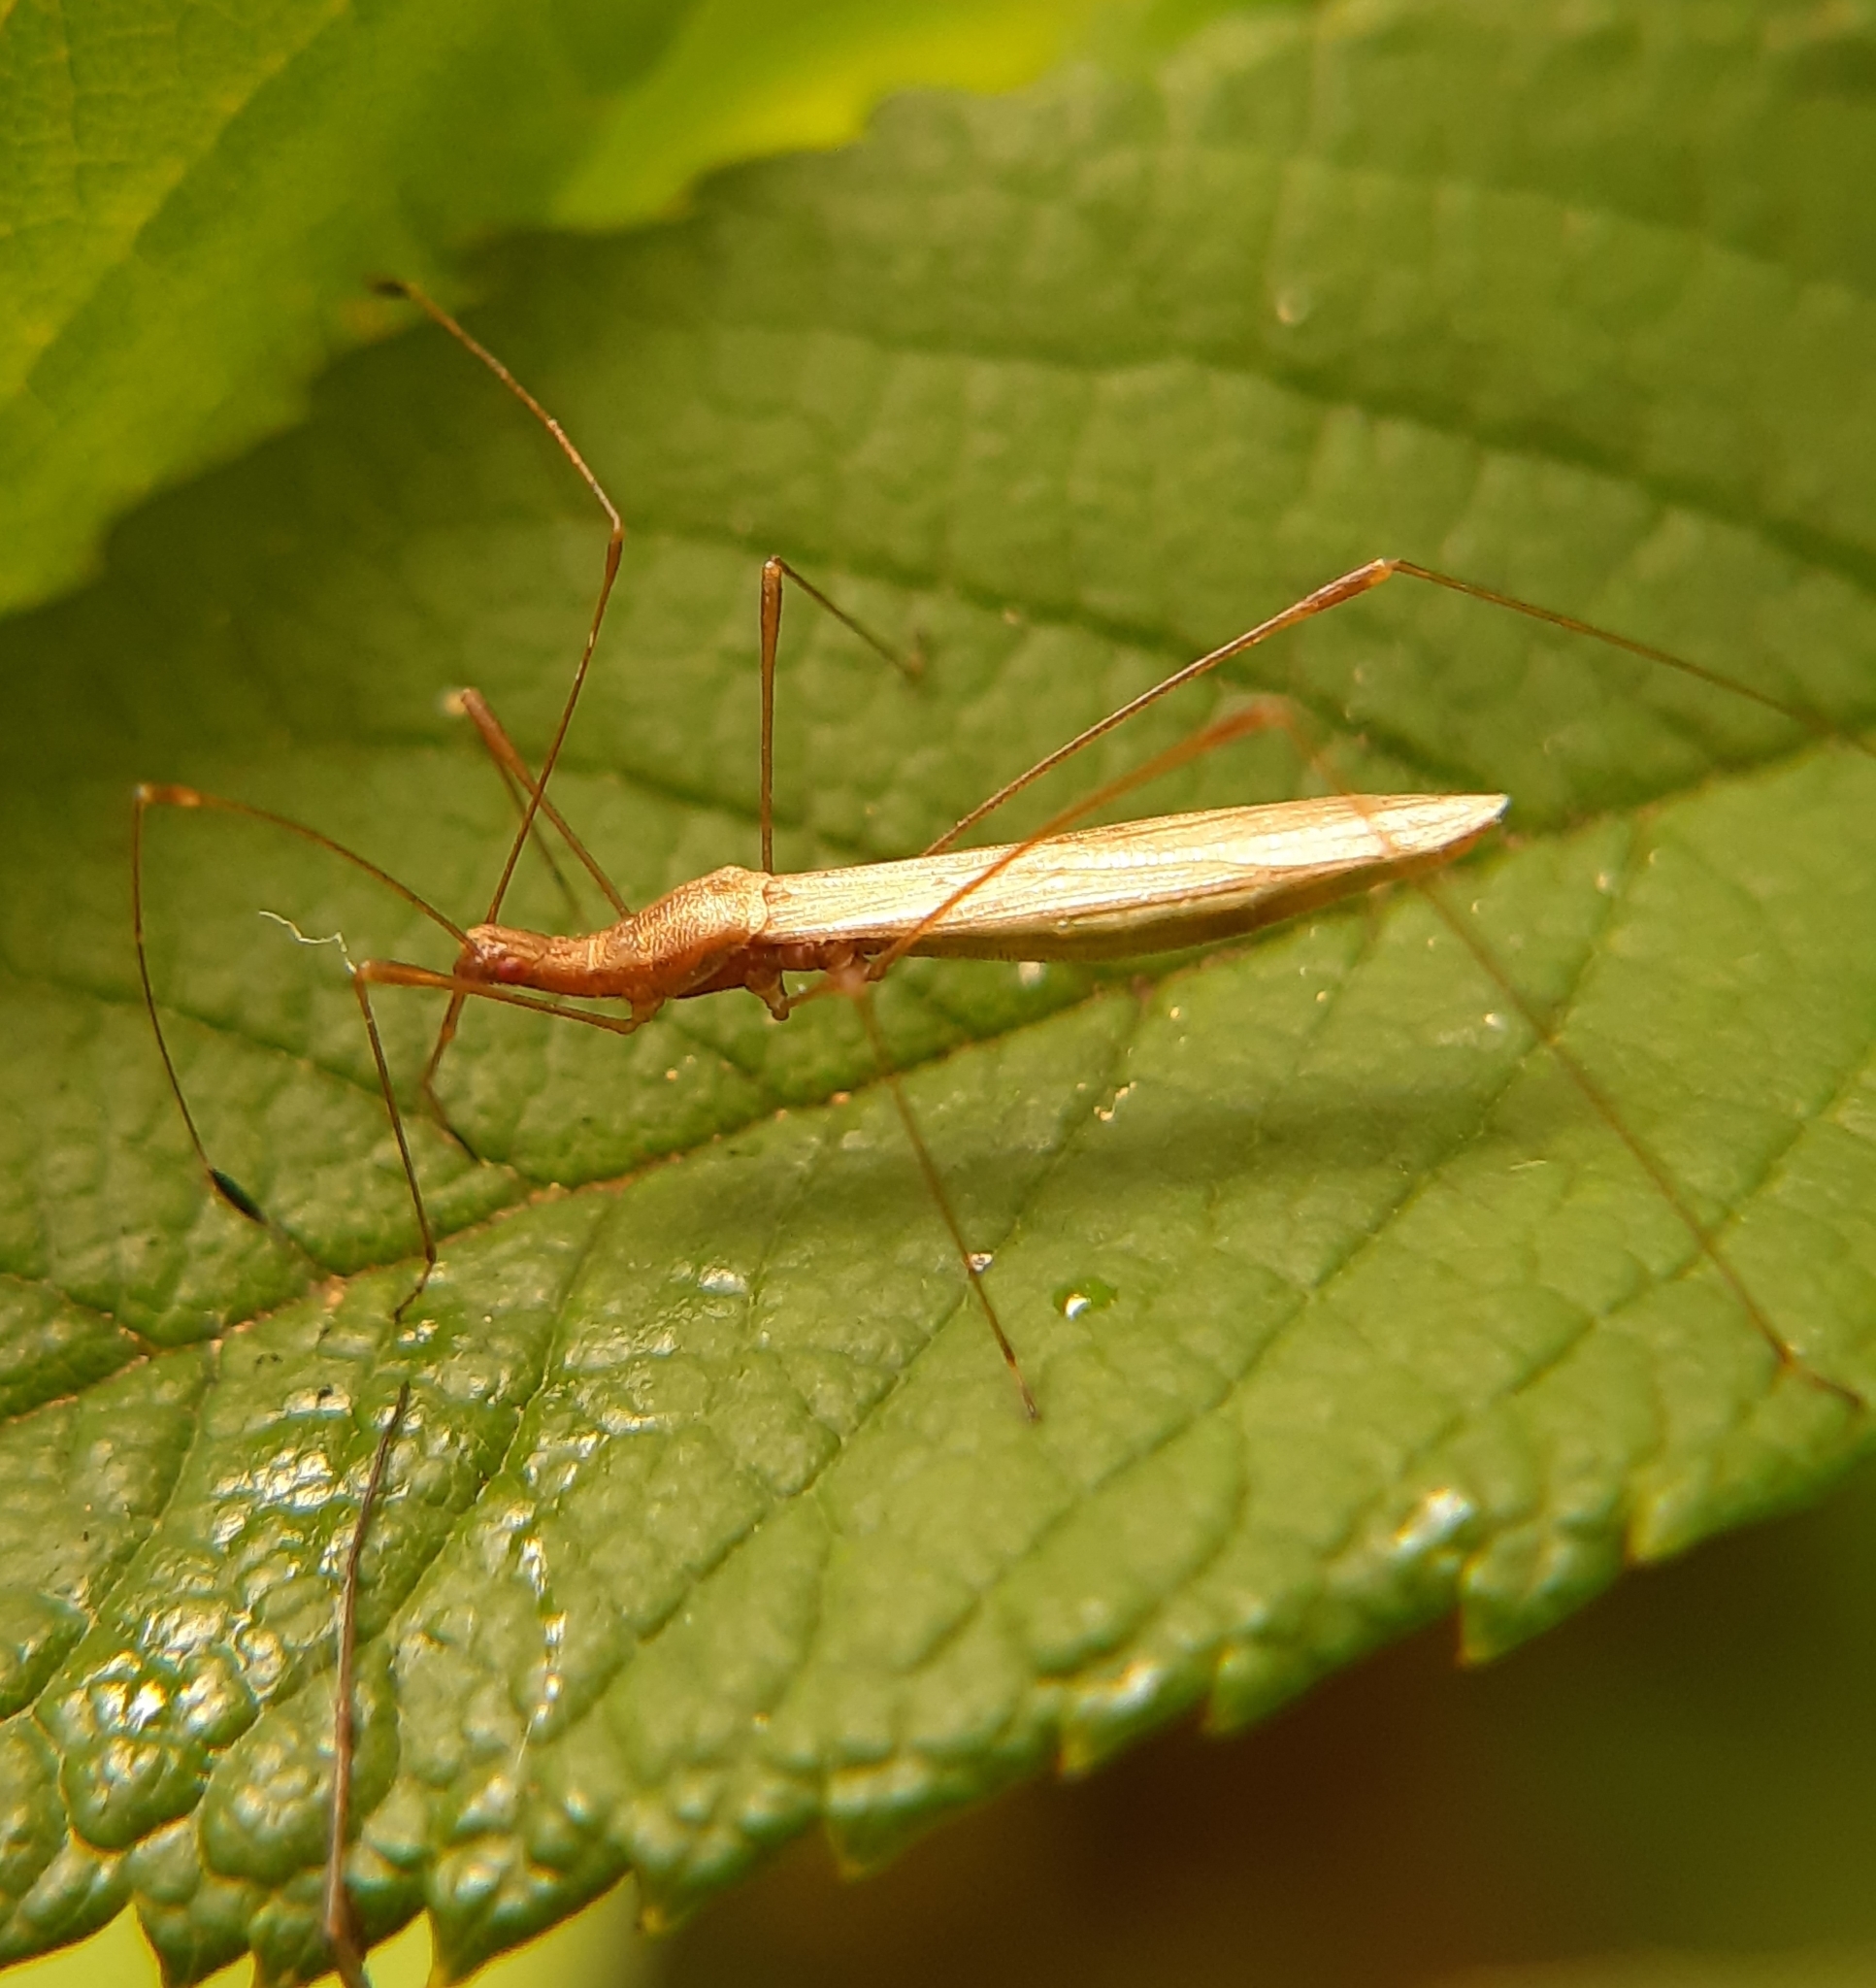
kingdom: Animalia
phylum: Arthropoda
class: Insecta
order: Hemiptera
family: Berytidae
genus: Neoneides
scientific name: Neoneides muticus
